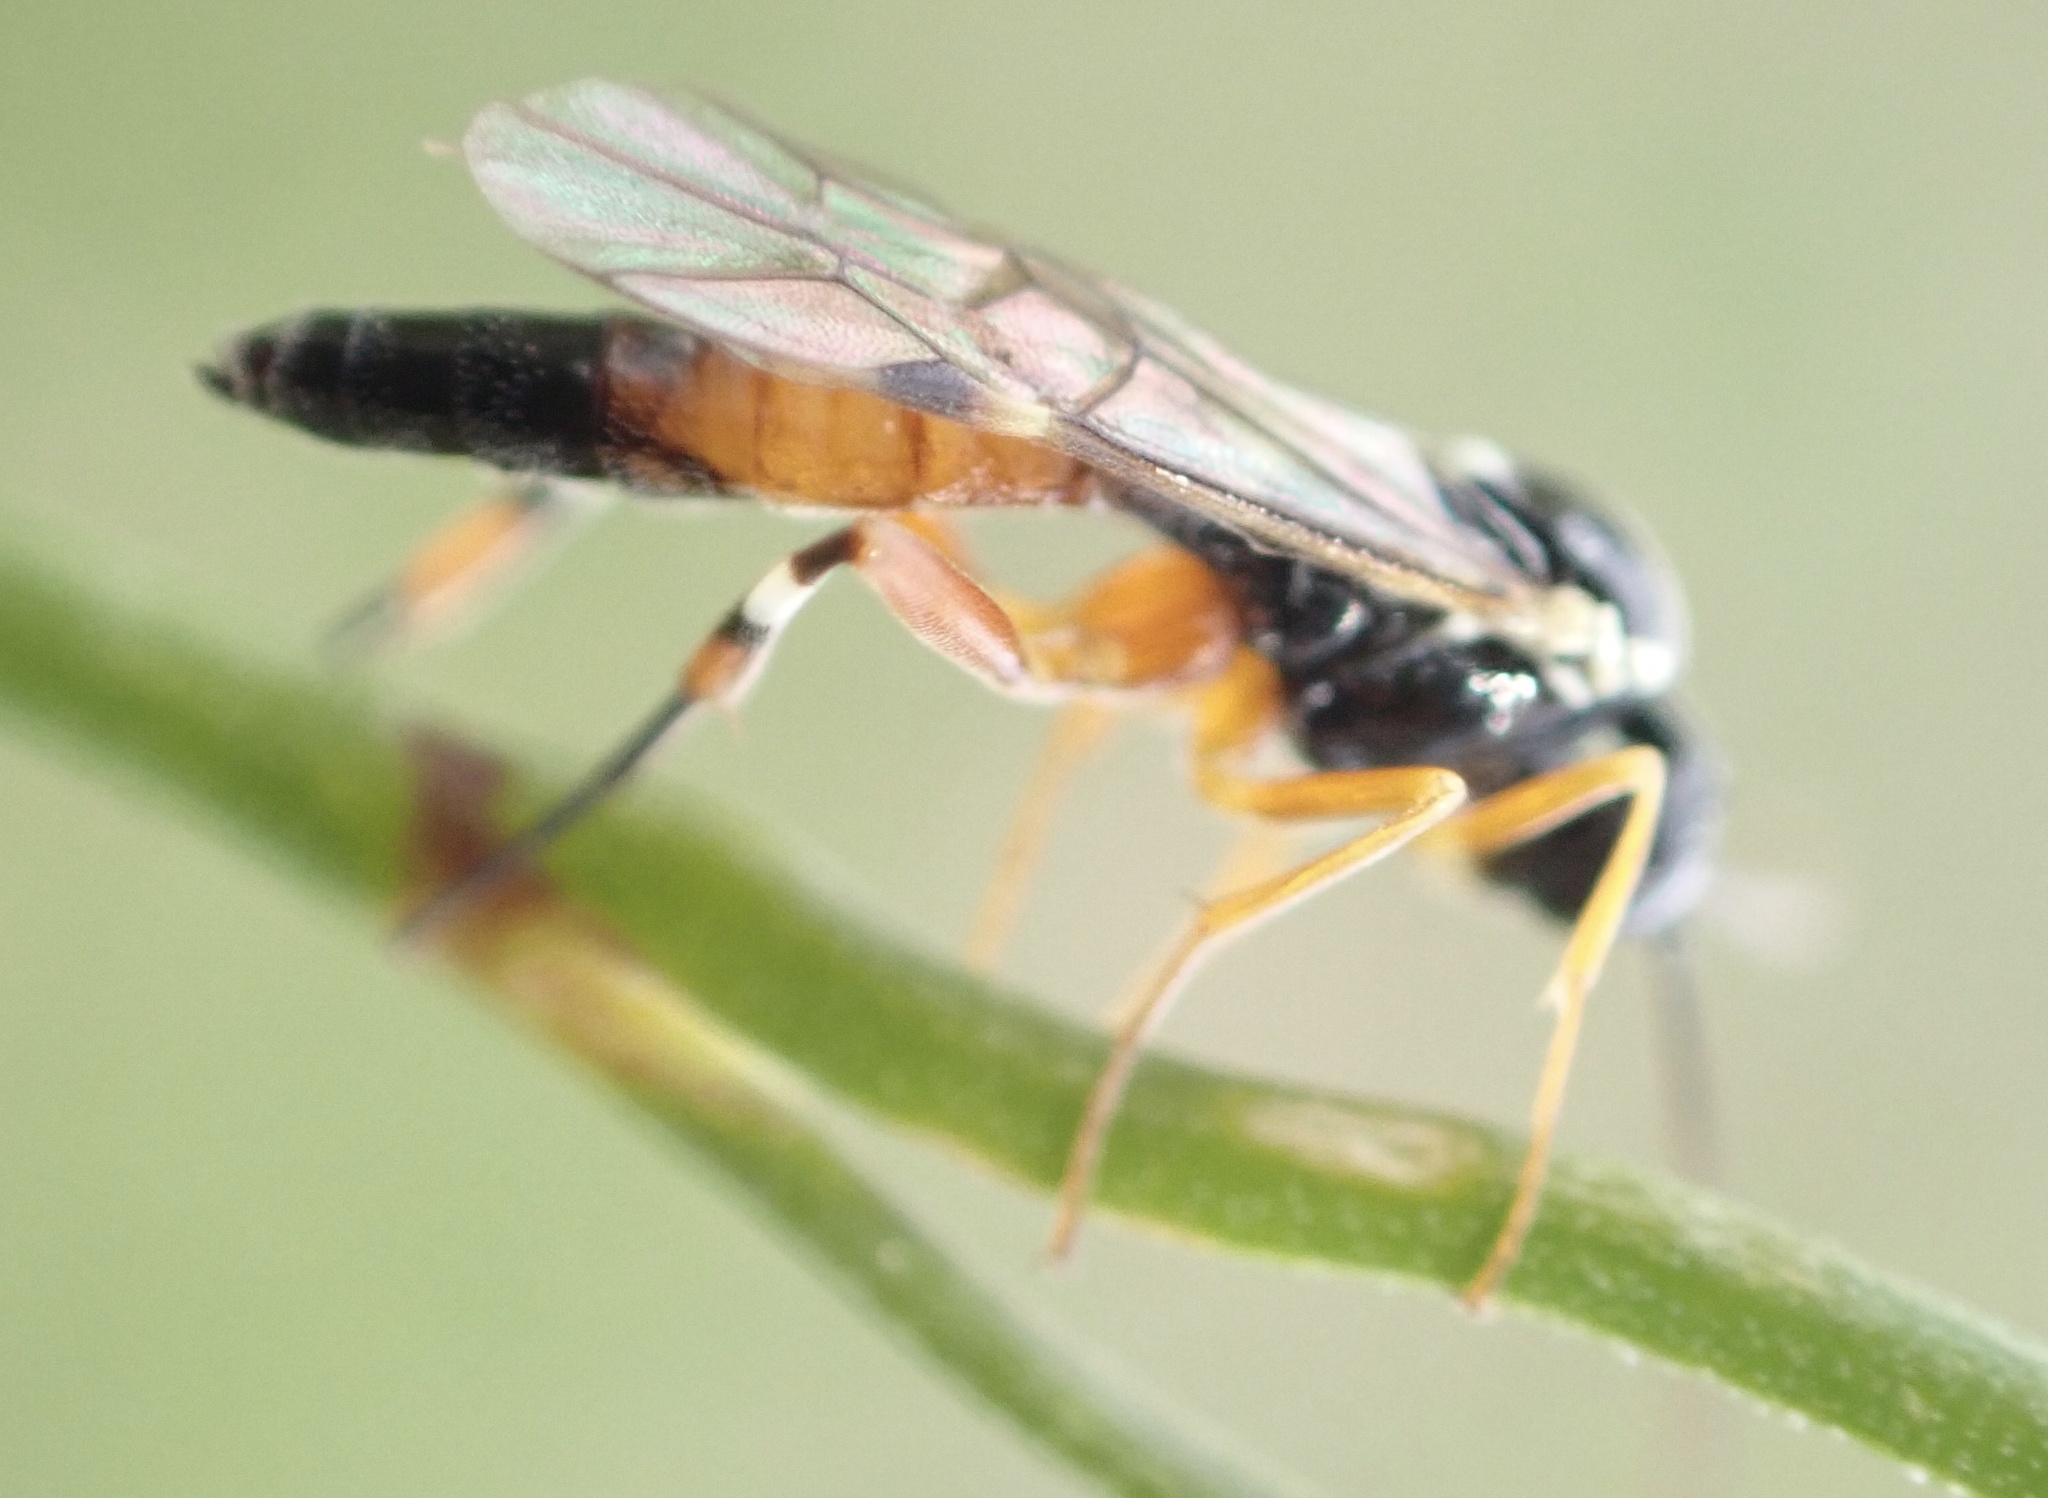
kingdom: Animalia
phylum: Arthropoda
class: Insecta
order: Hymenoptera
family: Ichneumonidae
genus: Diplazon
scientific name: Diplazon laetatorius
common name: Parasitoid wasp
